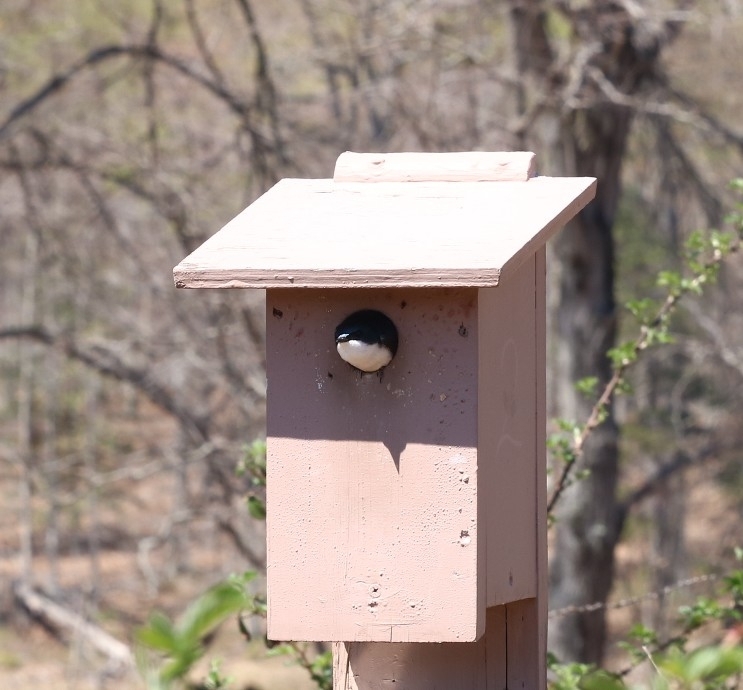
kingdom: Animalia
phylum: Chordata
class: Aves
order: Passeriformes
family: Hirundinidae
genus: Tachycineta
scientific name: Tachycineta bicolor
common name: Tree swallow
